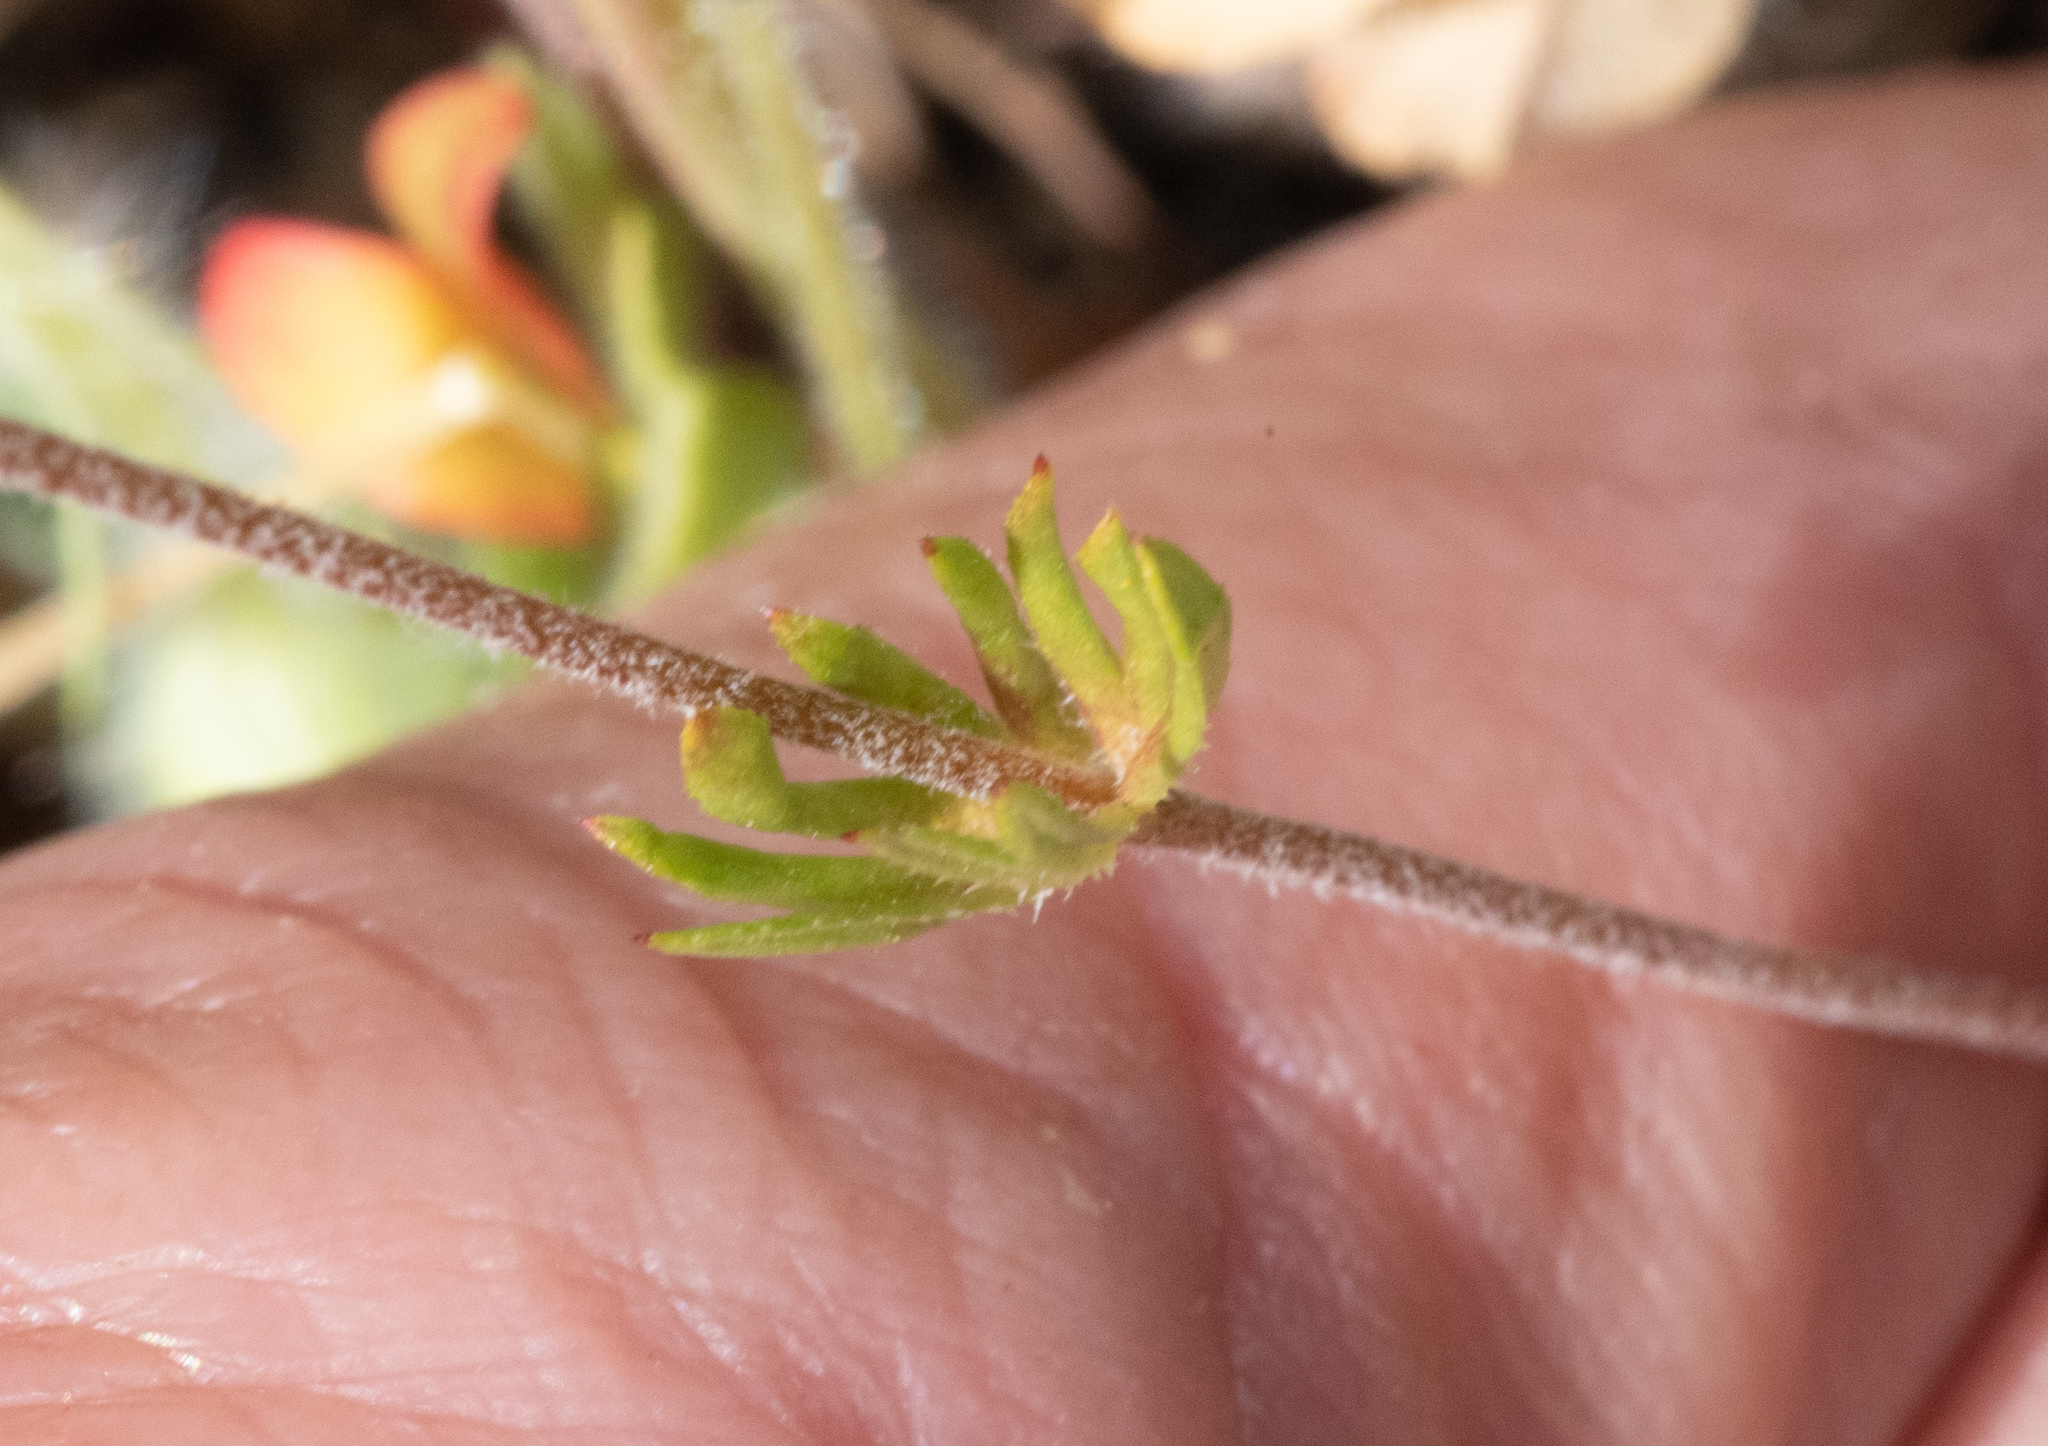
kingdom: Plantae
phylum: Tracheophyta
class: Magnoliopsida
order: Ericales
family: Polemoniaceae
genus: Leptosiphon
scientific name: Leptosiphon parviflorus
